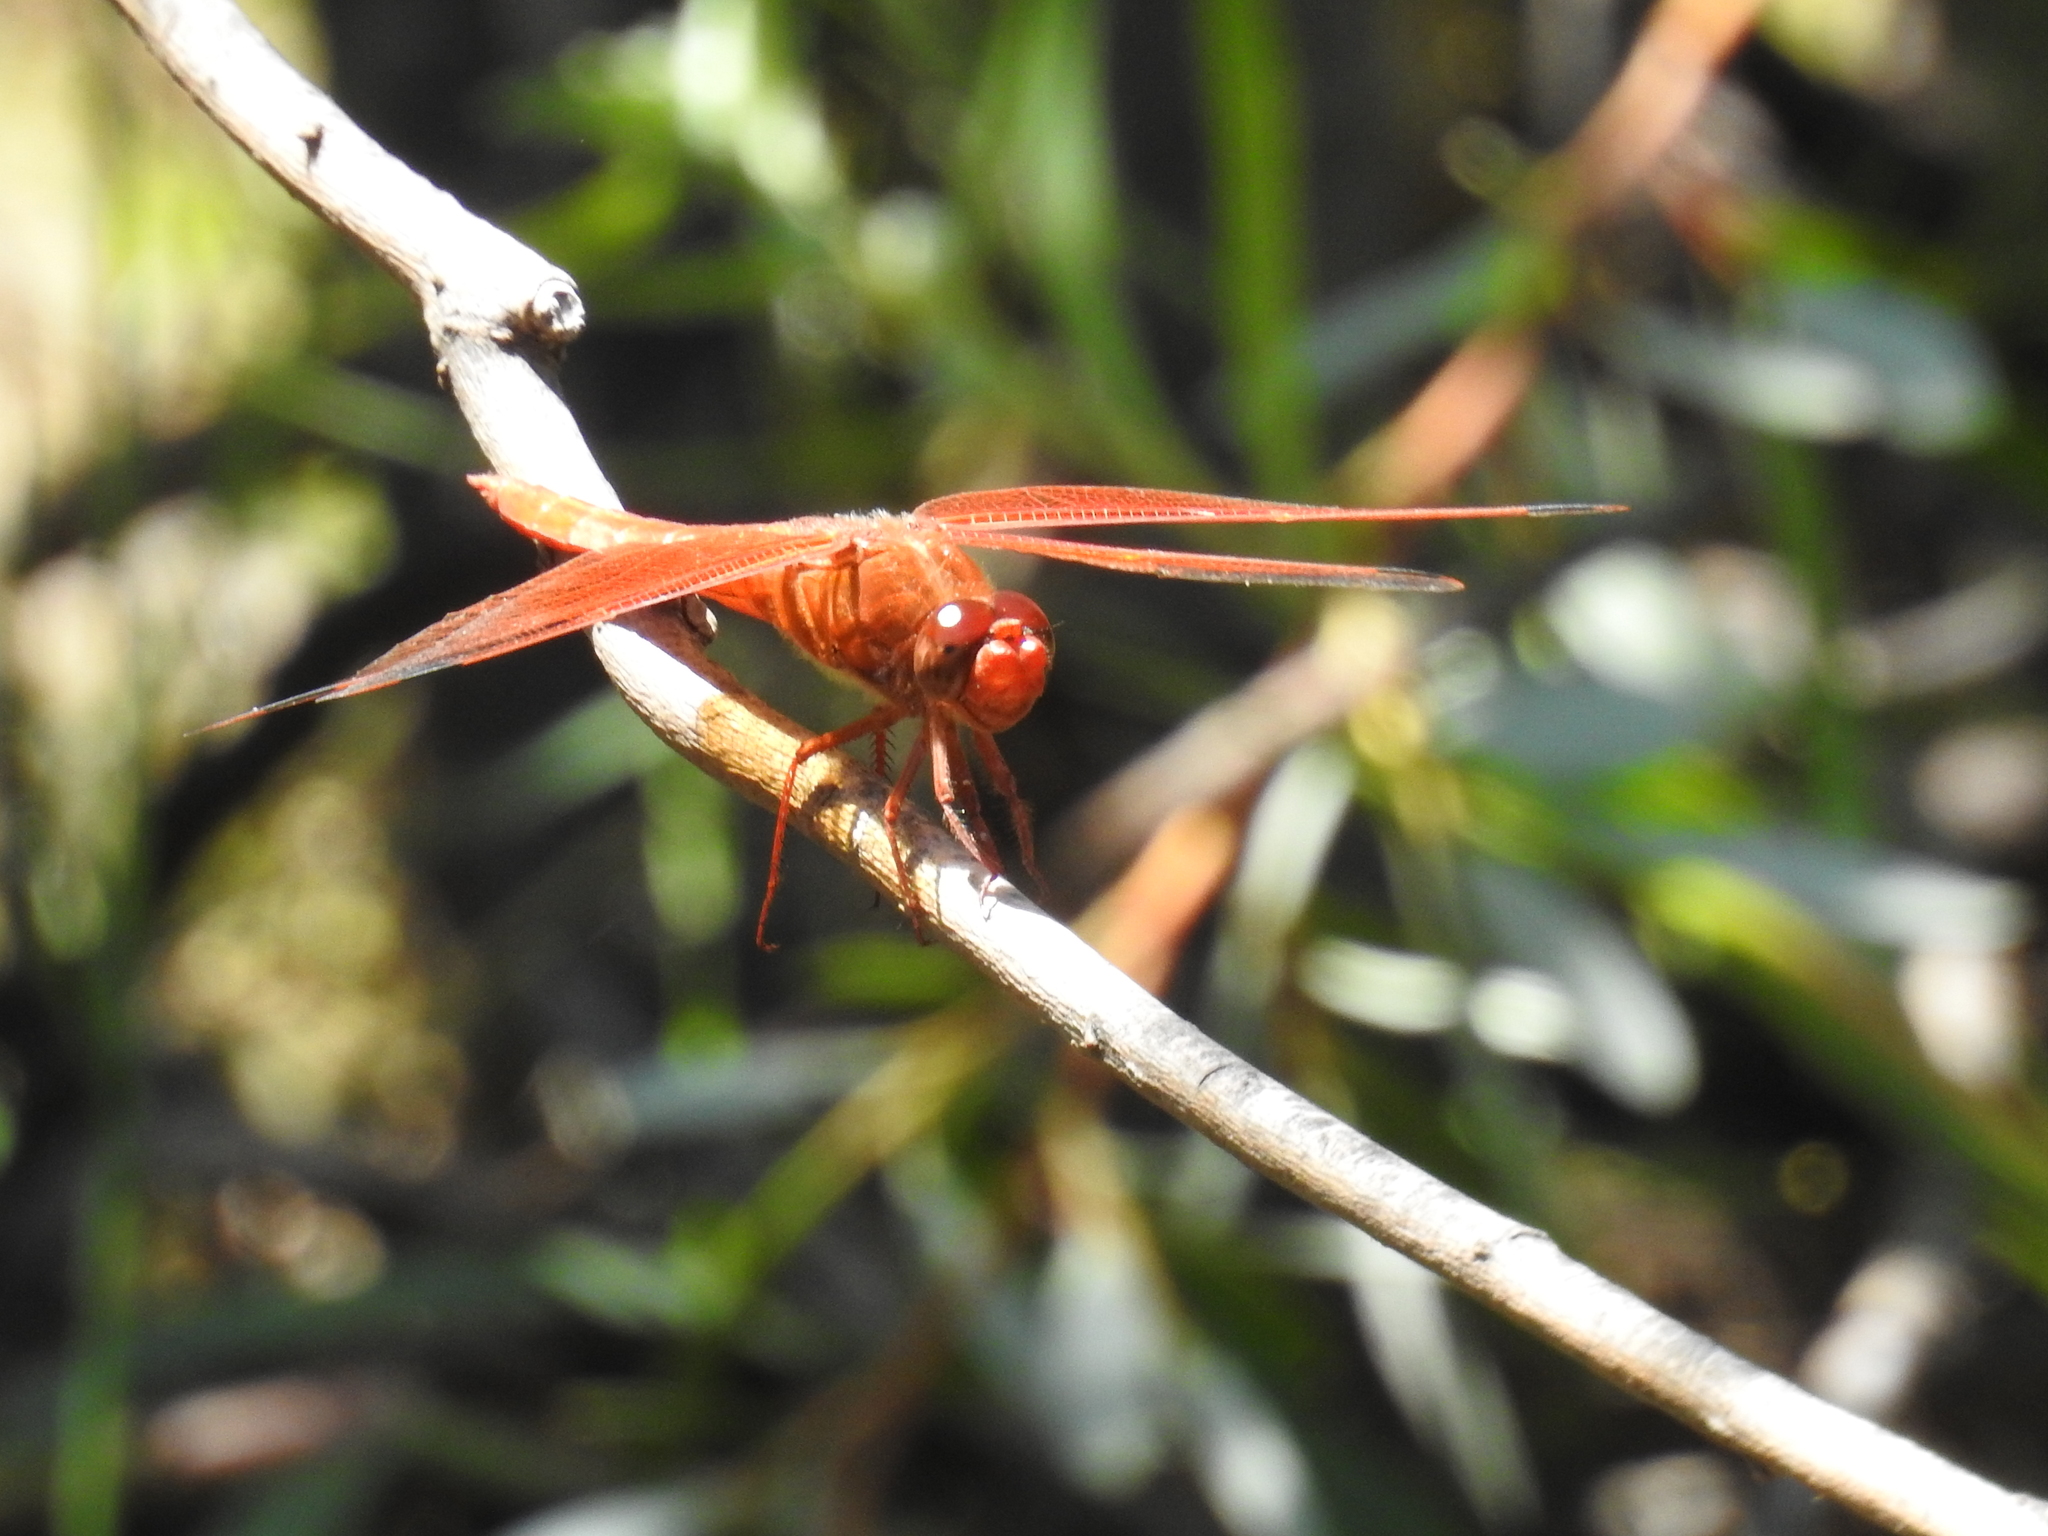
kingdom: Animalia
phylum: Arthropoda
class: Insecta
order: Odonata
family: Libellulidae
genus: Libellula
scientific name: Libellula saturata
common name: Flame skimmer
